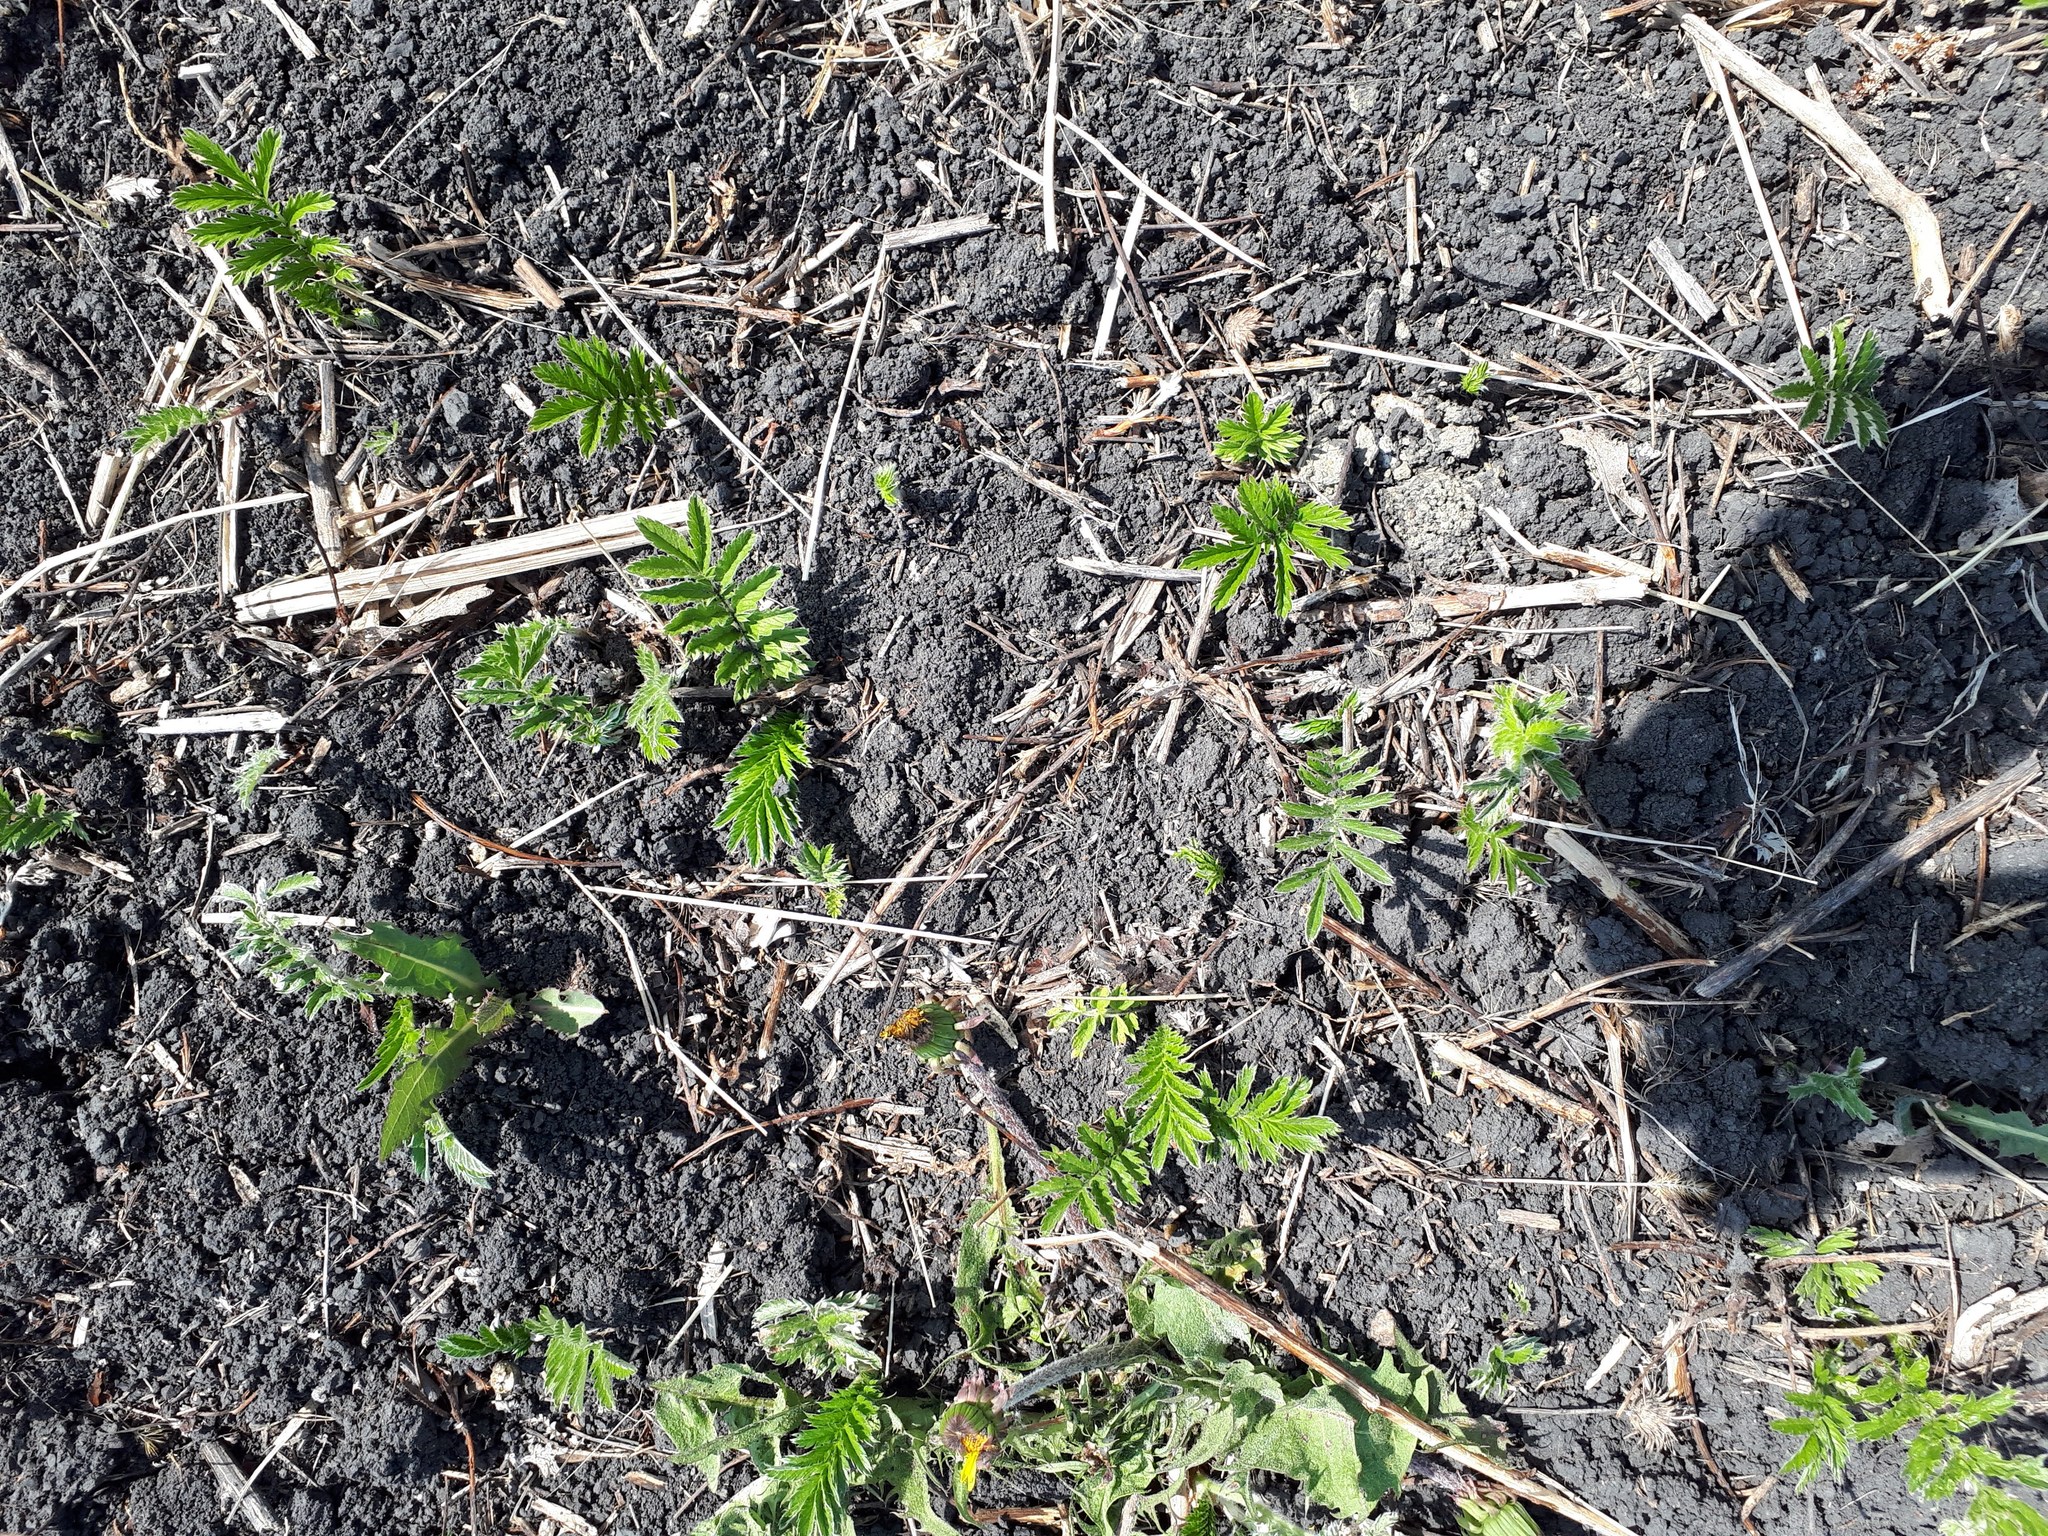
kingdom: Plantae
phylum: Tracheophyta
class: Magnoliopsida
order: Rosales
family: Rosaceae
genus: Argentina
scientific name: Argentina anserina
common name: Common silverweed
